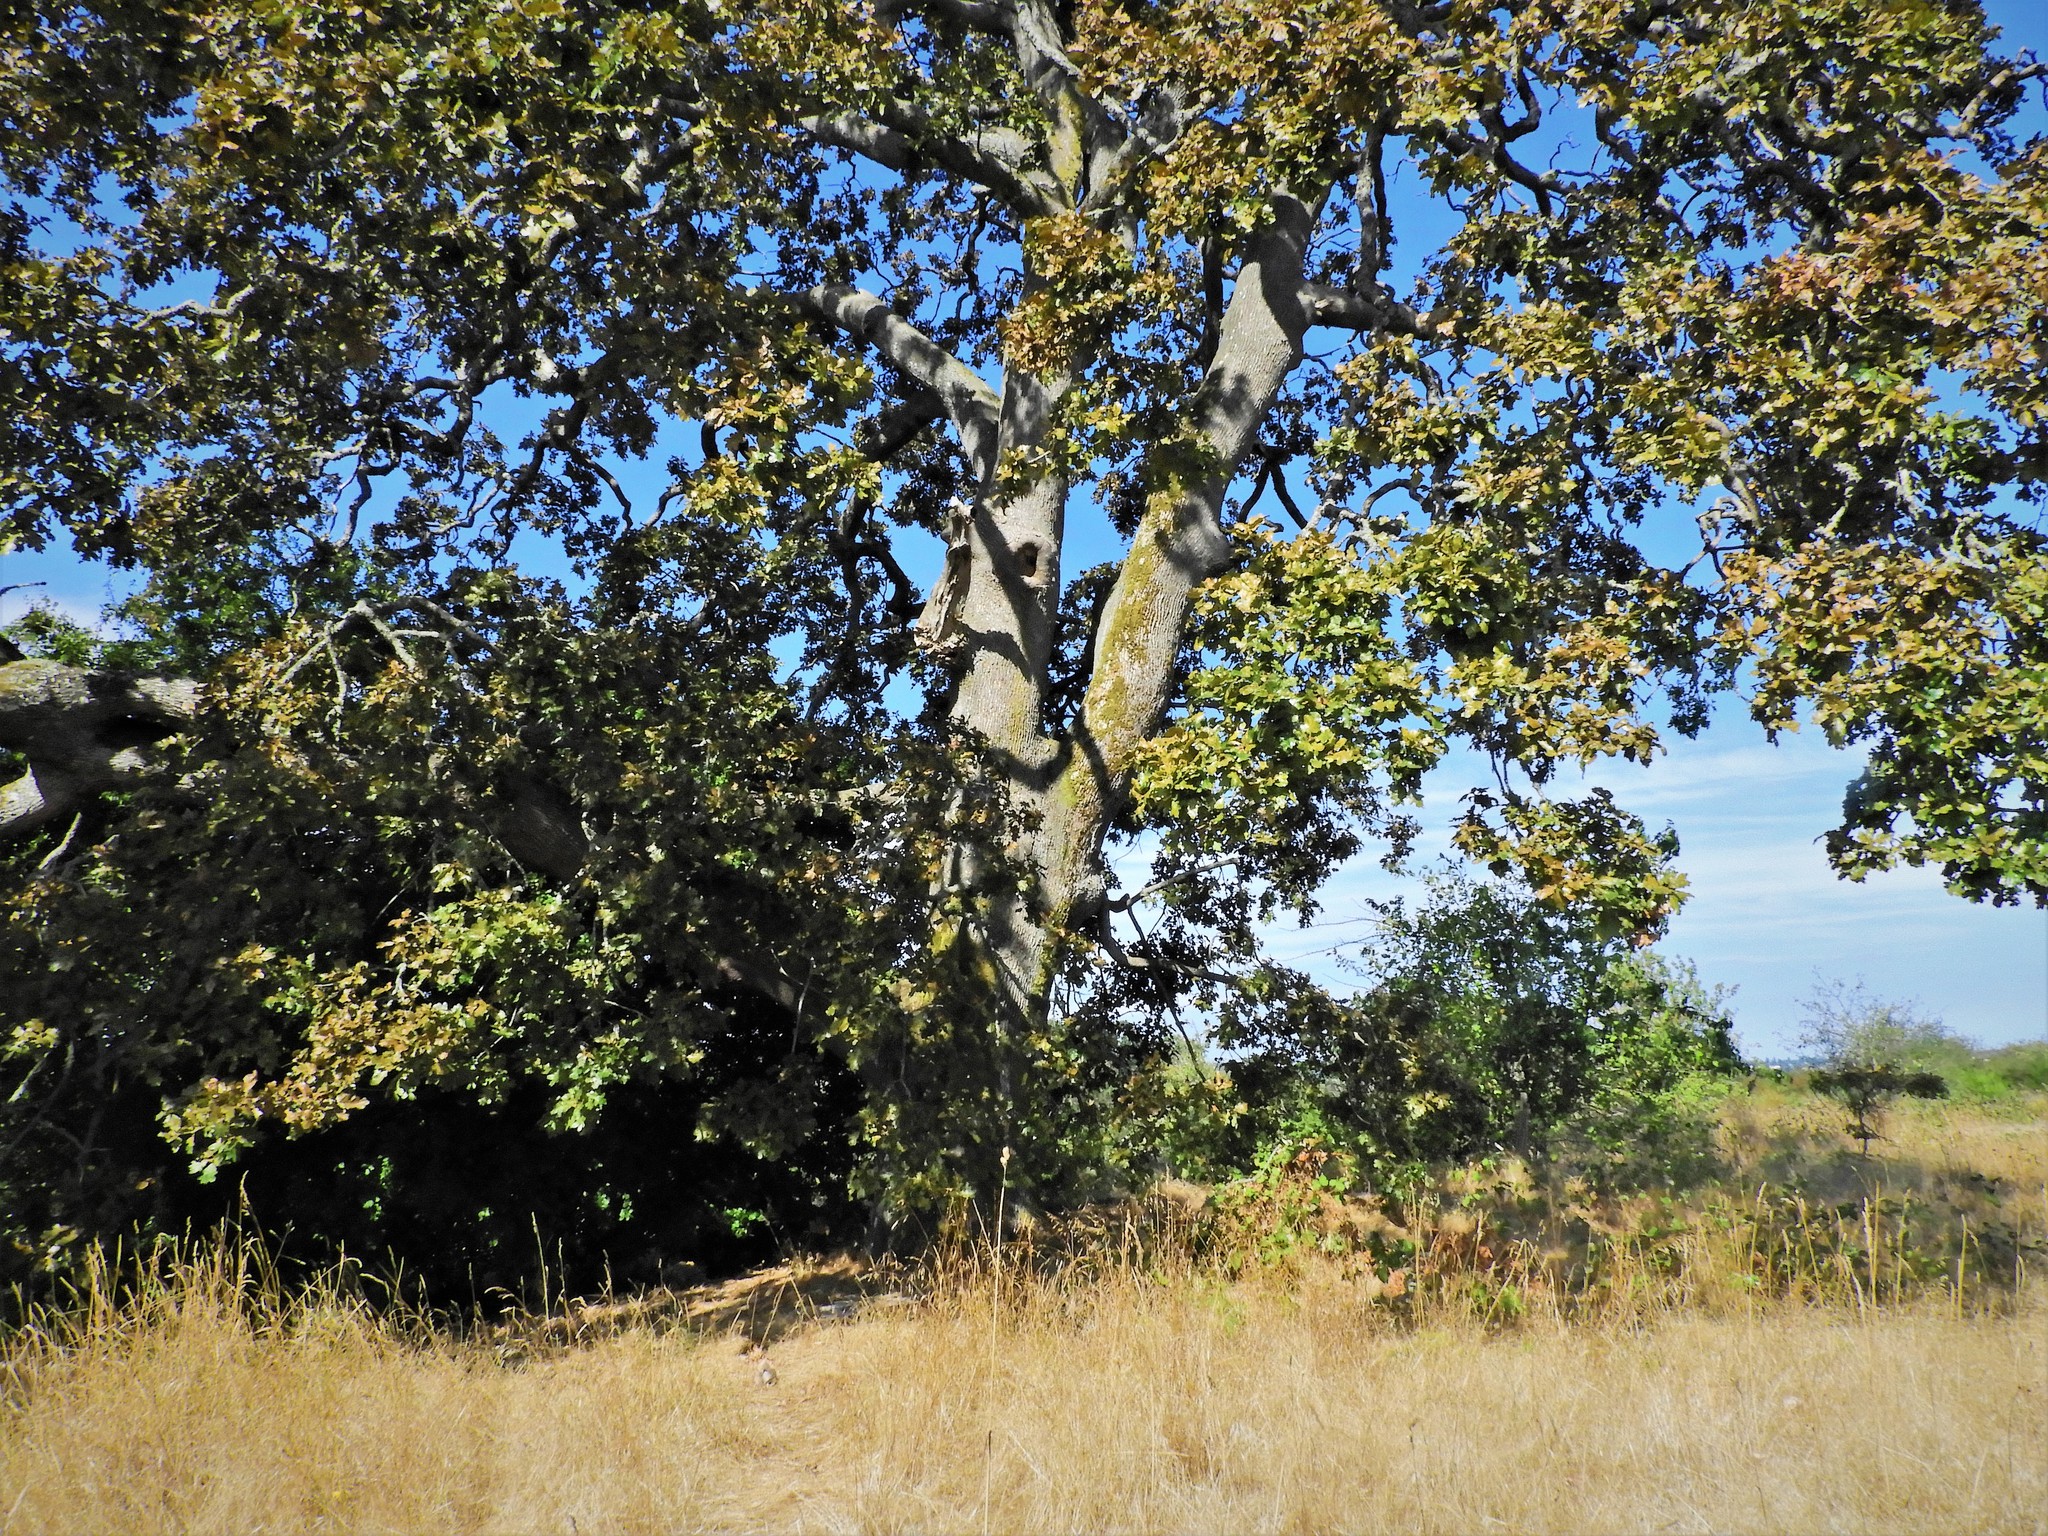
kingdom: Plantae
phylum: Tracheophyta
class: Magnoliopsida
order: Fagales
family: Fagaceae
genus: Quercus
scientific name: Quercus garryana
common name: Garry oak
